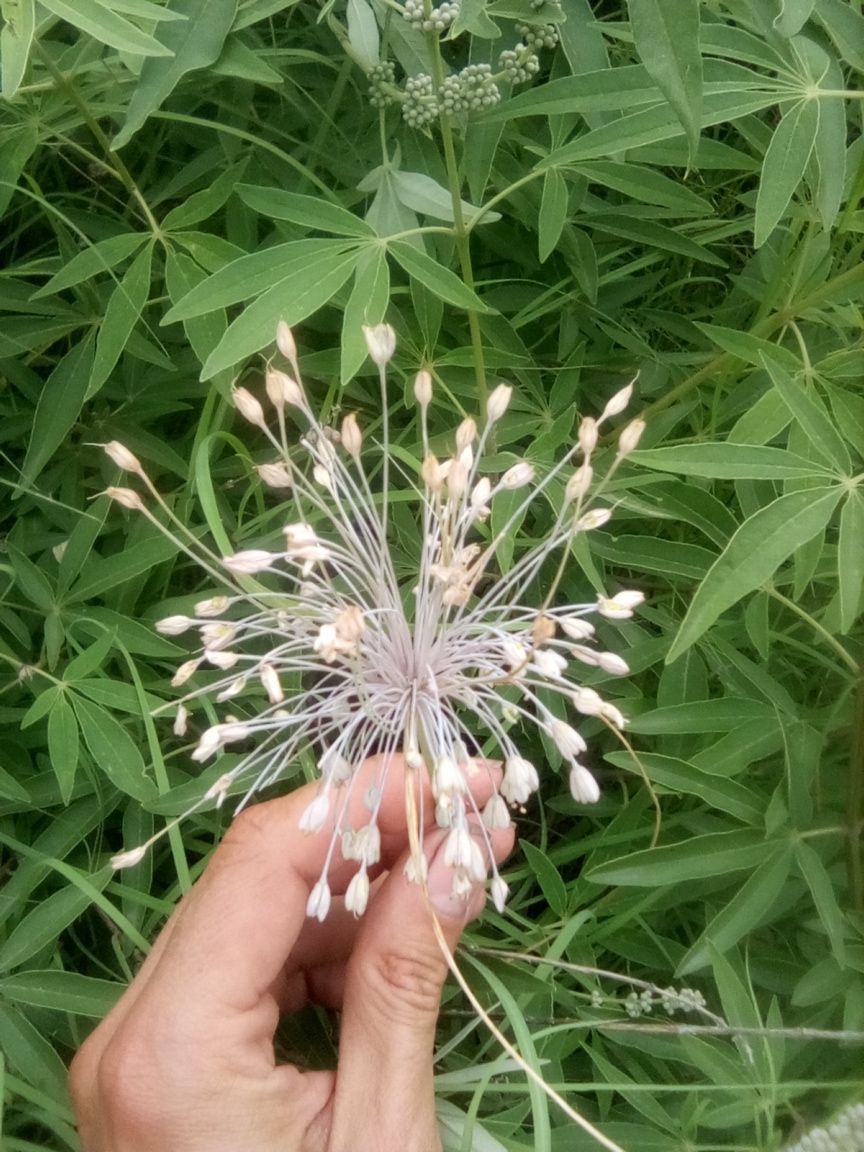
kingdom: Plantae
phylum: Tracheophyta
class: Liliopsida
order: Asparagales
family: Amaryllidaceae
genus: Allium
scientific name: Allium flavum
